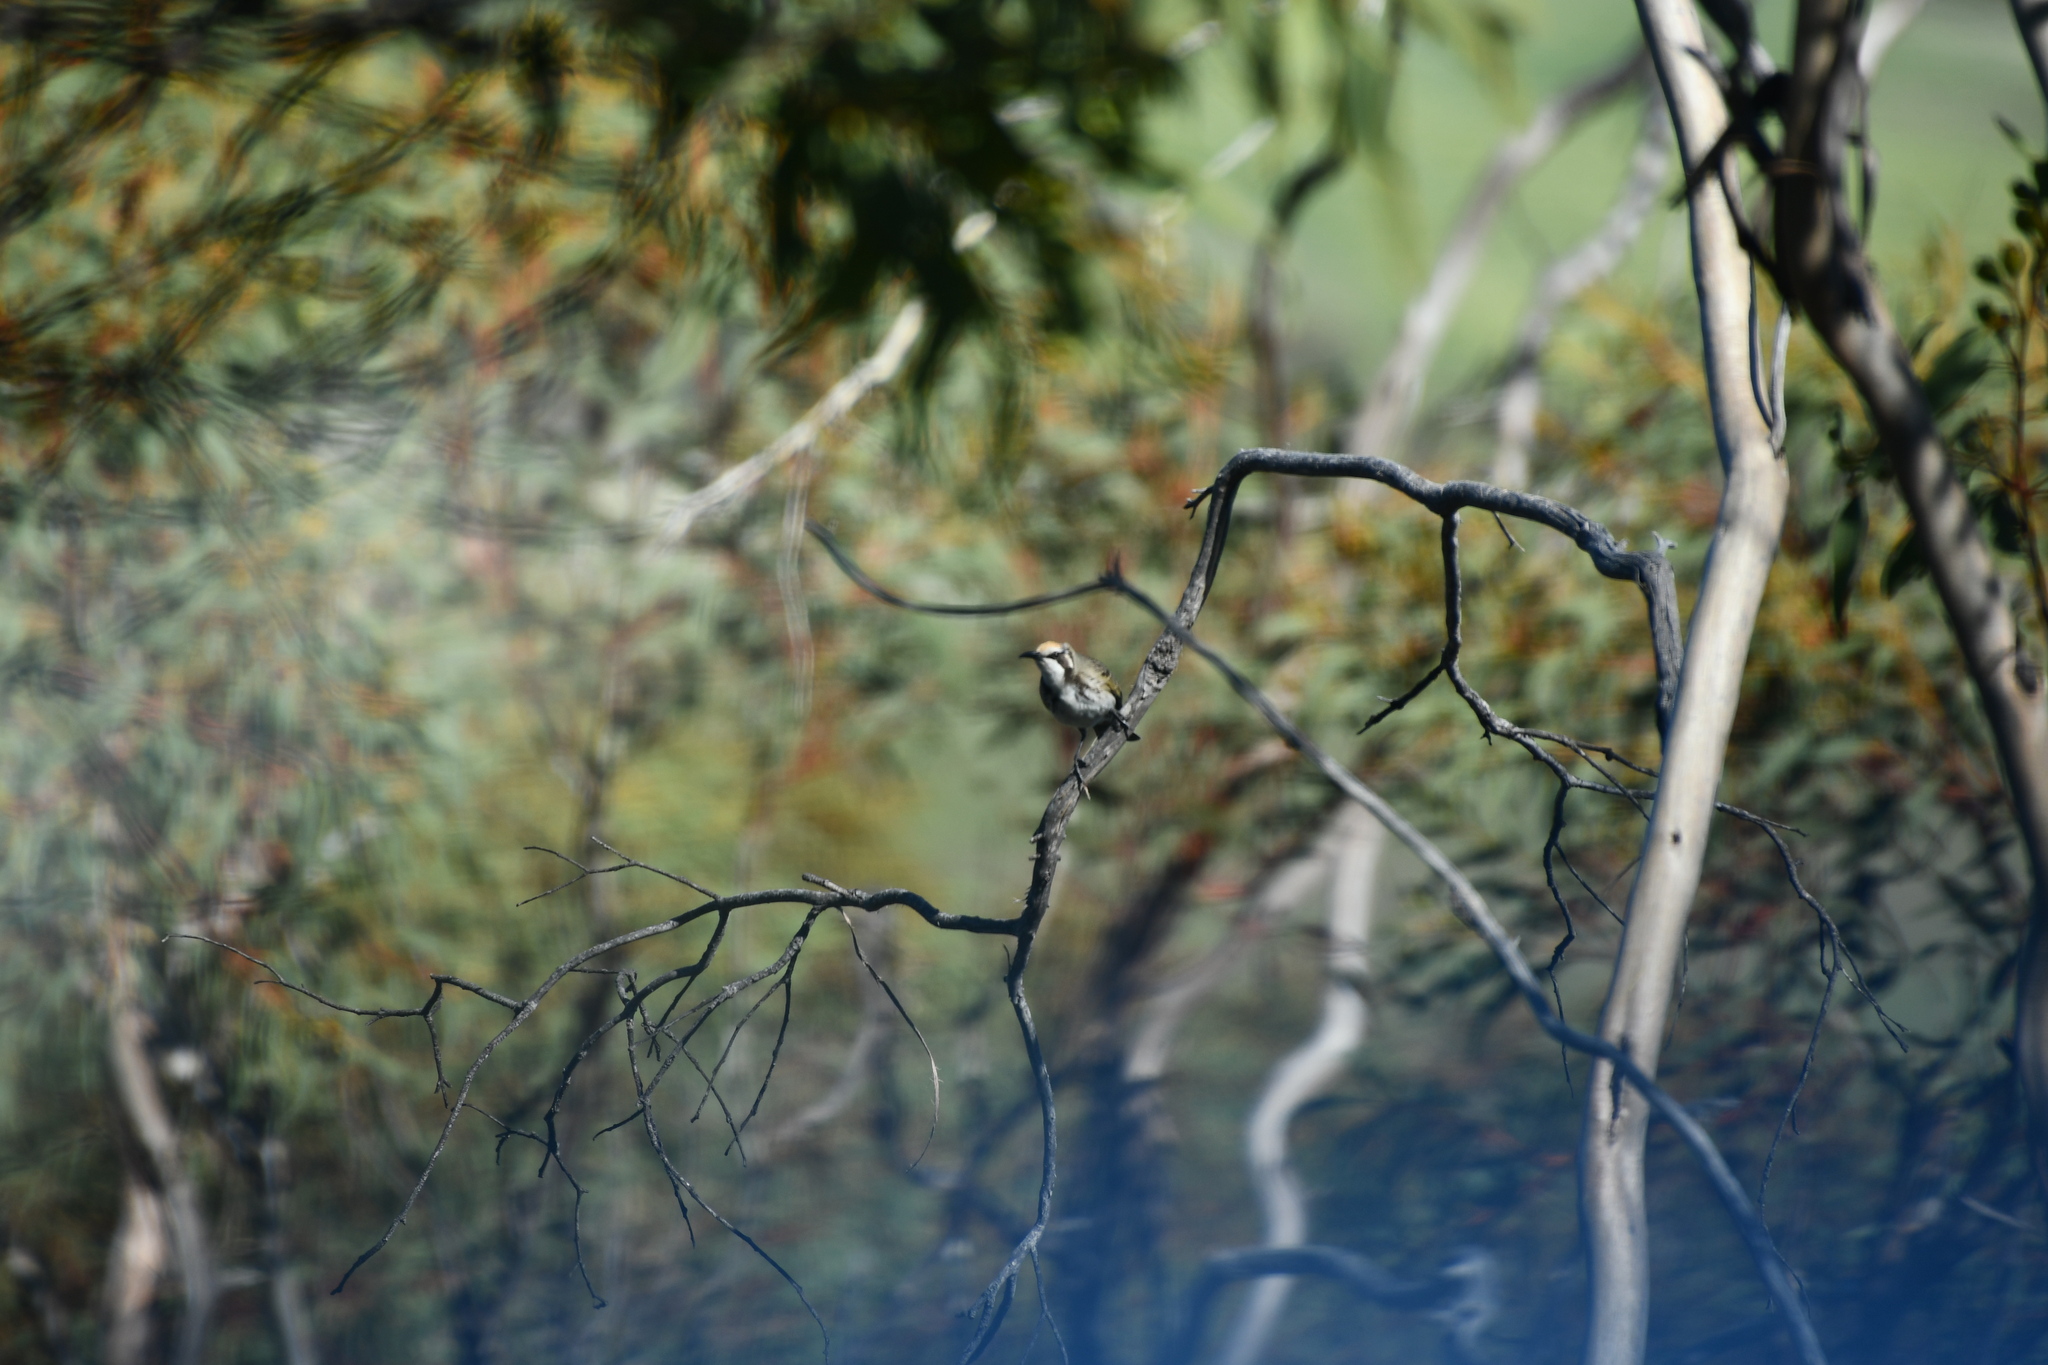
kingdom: Animalia
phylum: Chordata
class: Aves
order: Passeriformes
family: Meliphagidae
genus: Gliciphila
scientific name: Gliciphila melanops
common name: Tawny-crowned honeyeater
